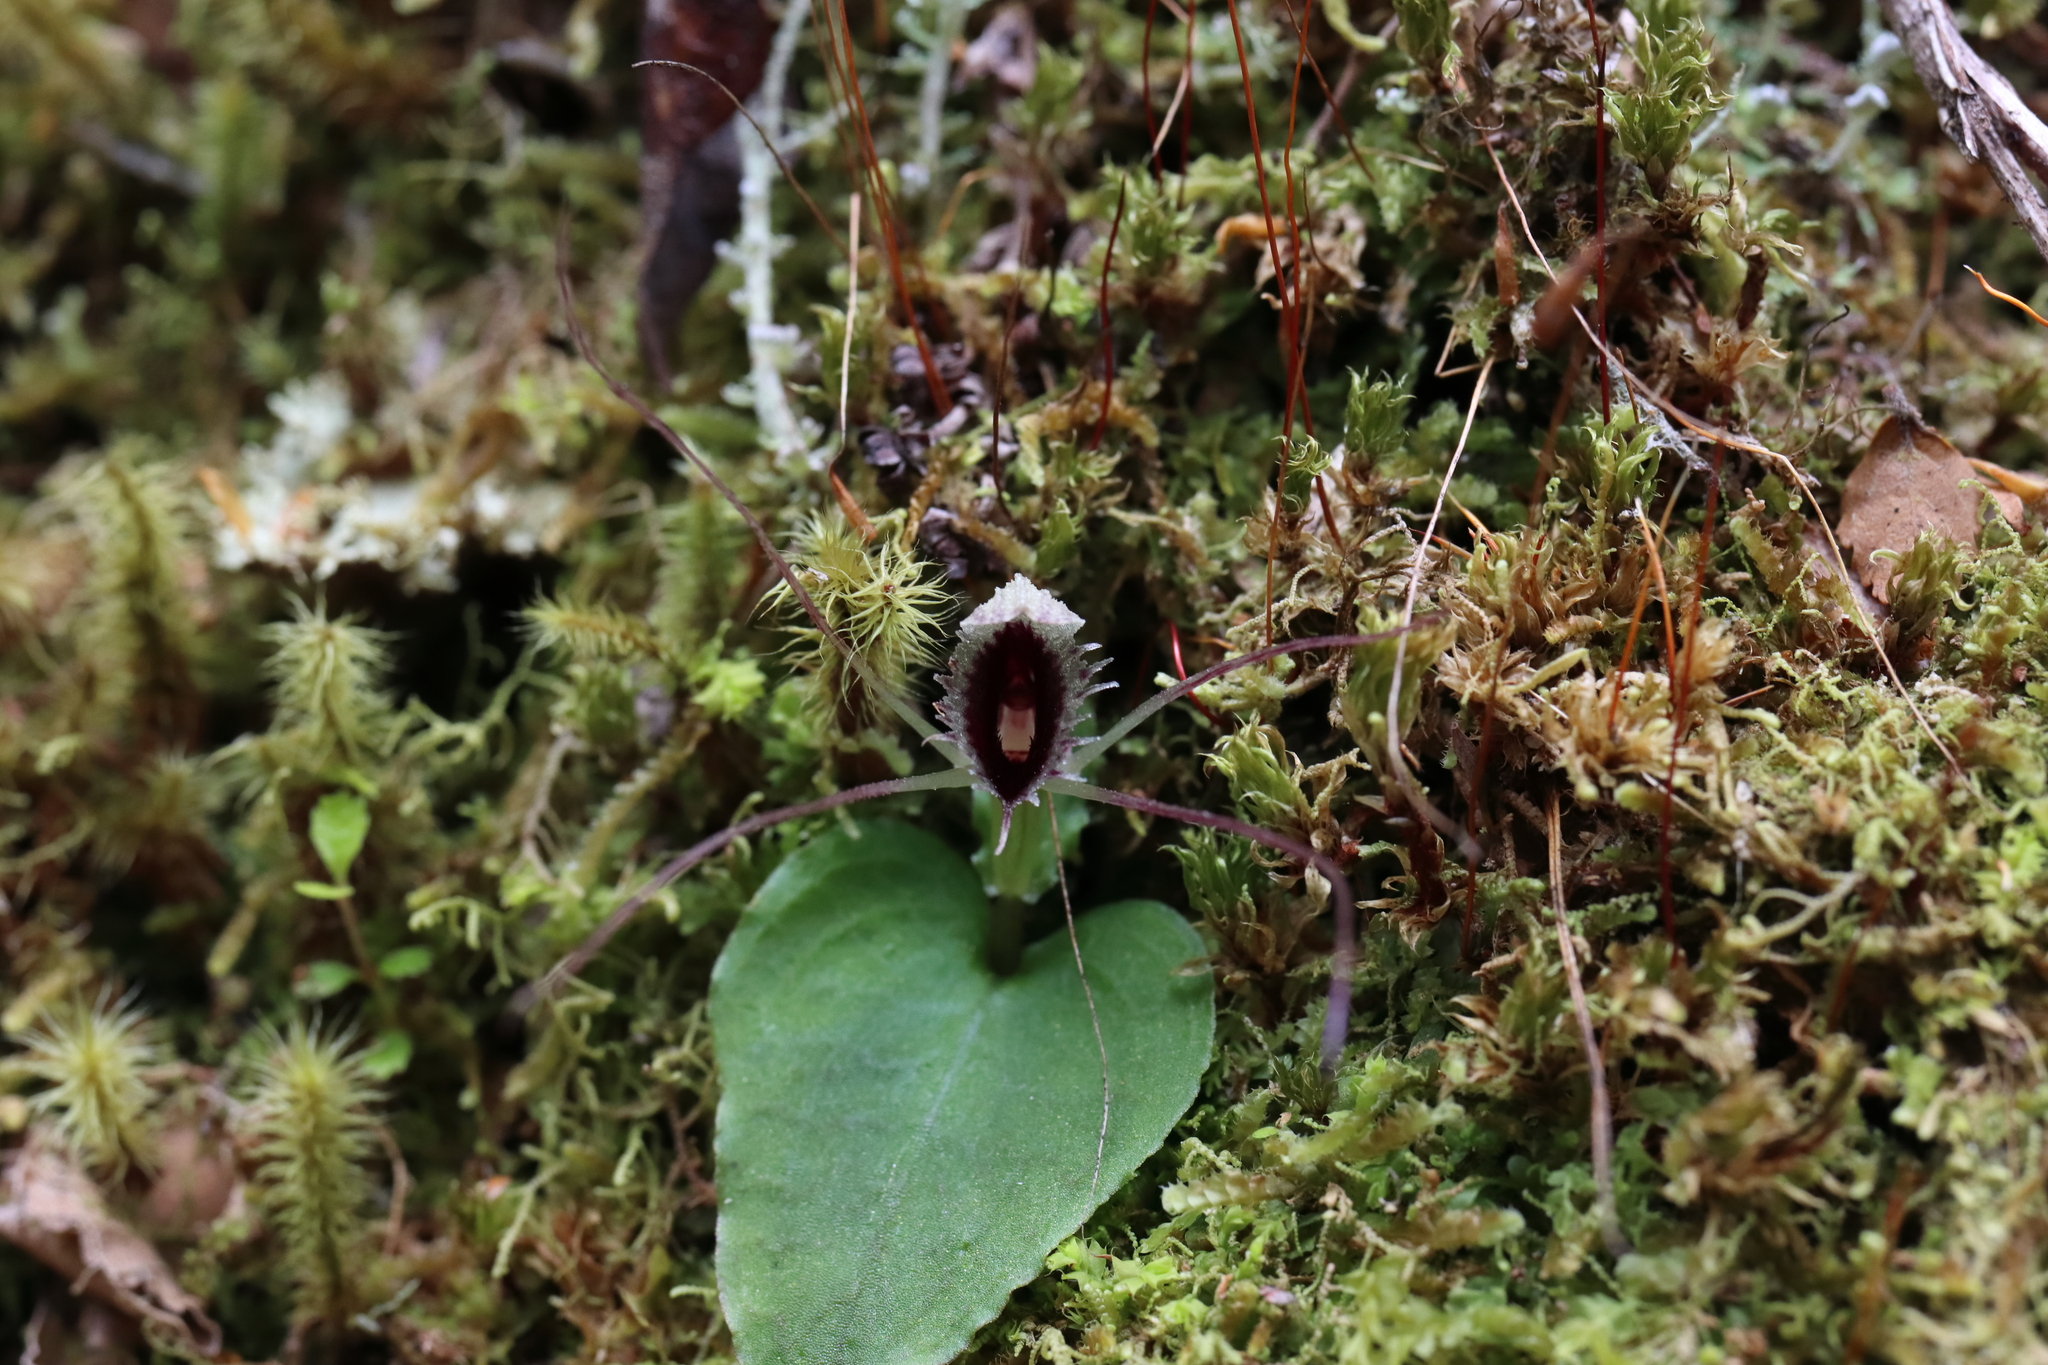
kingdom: Plantae
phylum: Tracheophyta
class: Liliopsida
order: Asparagales
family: Orchidaceae
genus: Corybas
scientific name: Corybas oblongus
